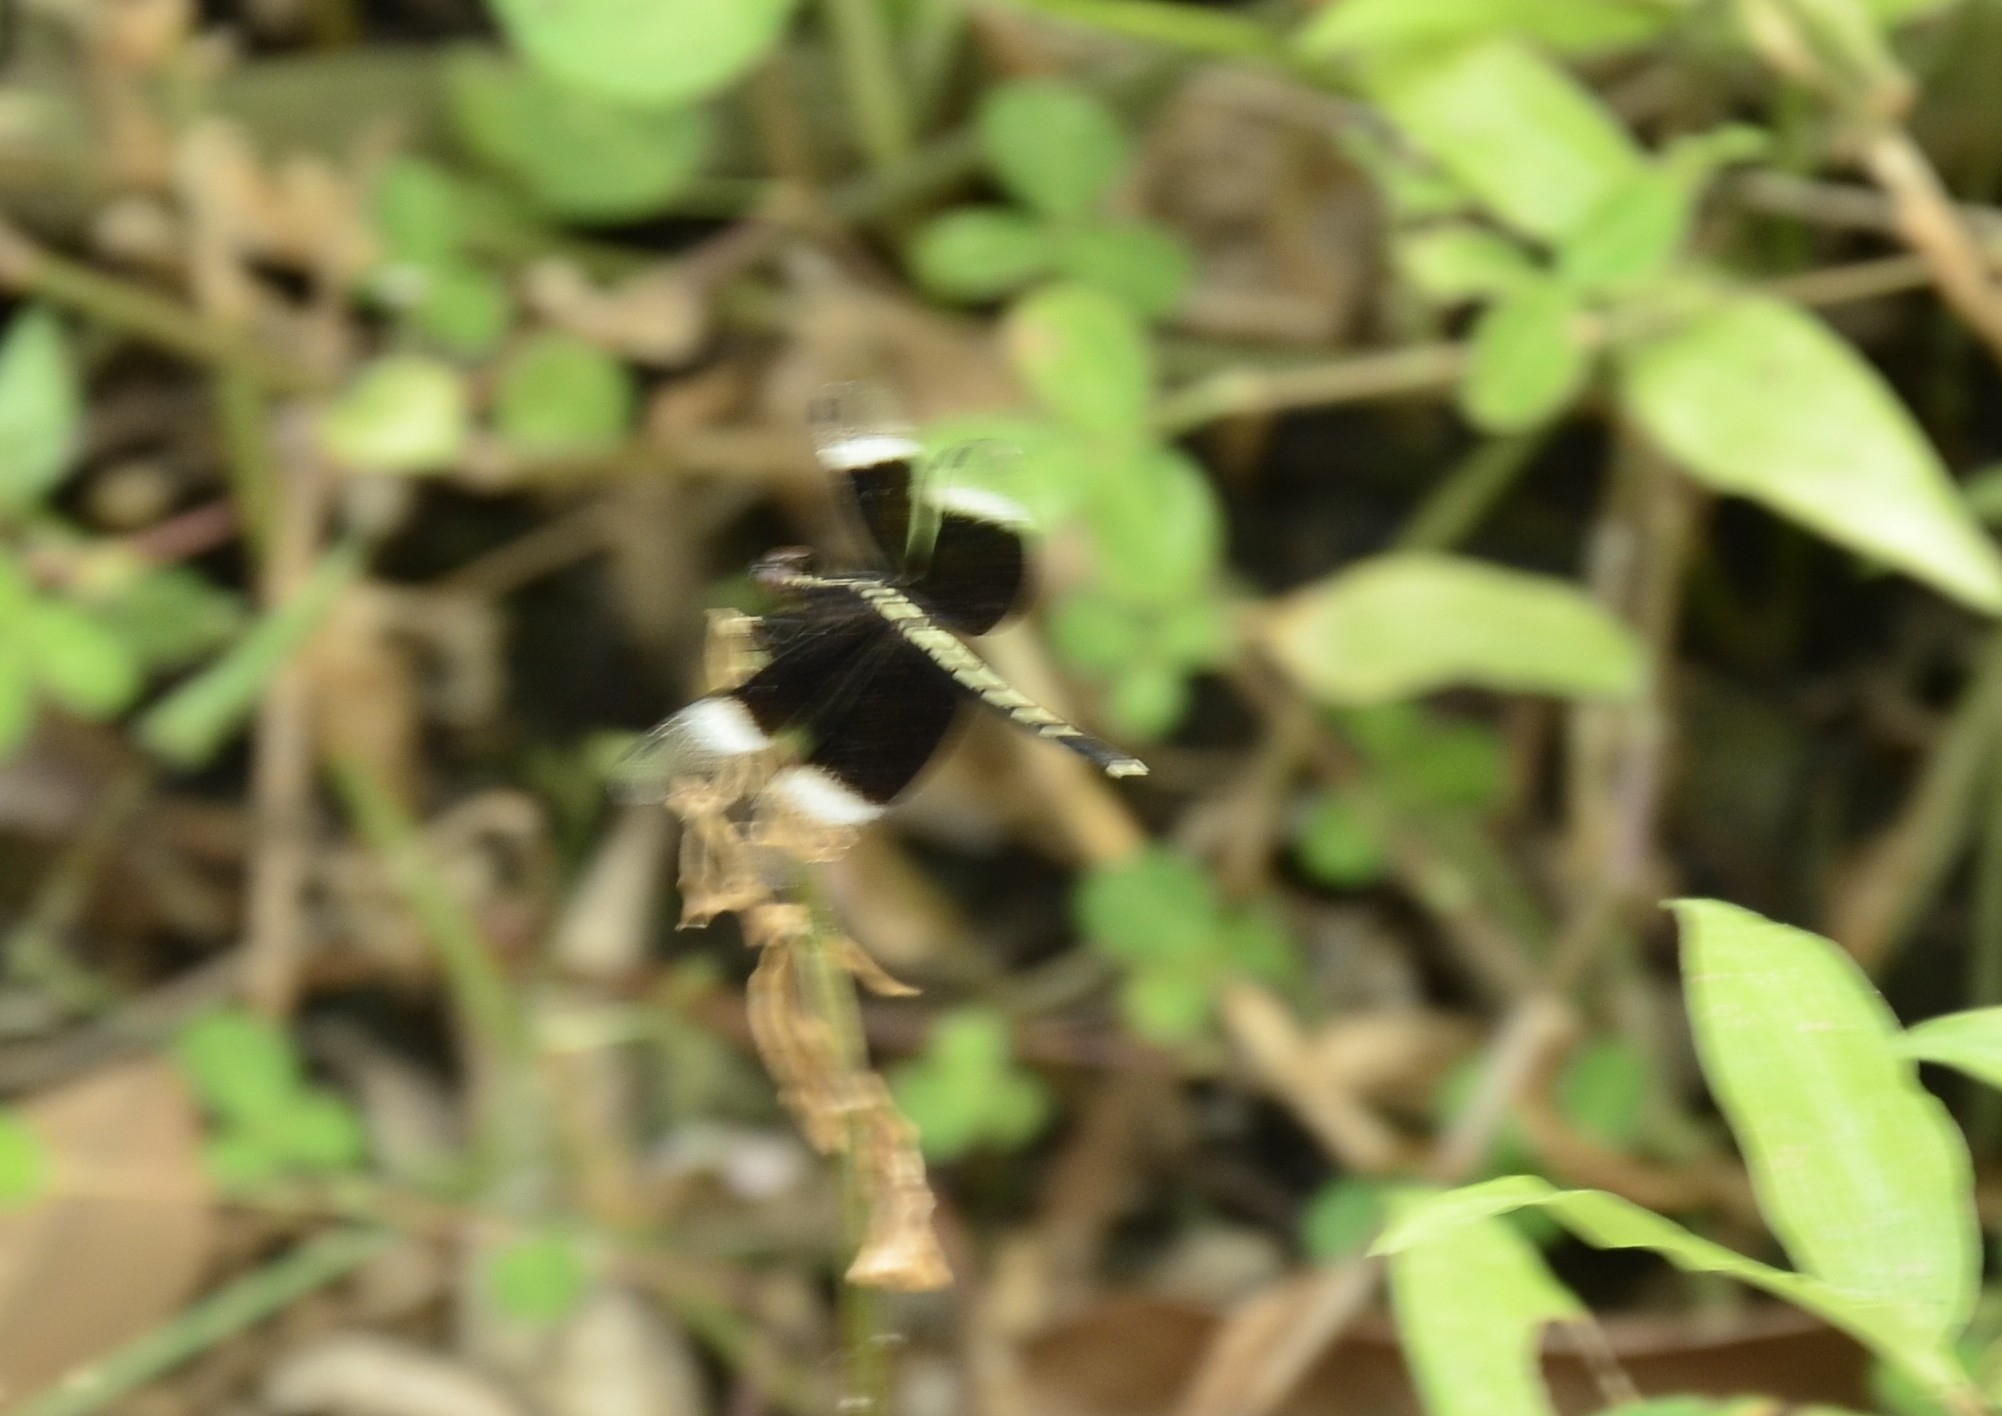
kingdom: Animalia
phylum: Arthropoda
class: Insecta
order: Odonata
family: Libellulidae
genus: Neurothemis
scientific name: Neurothemis tullia
